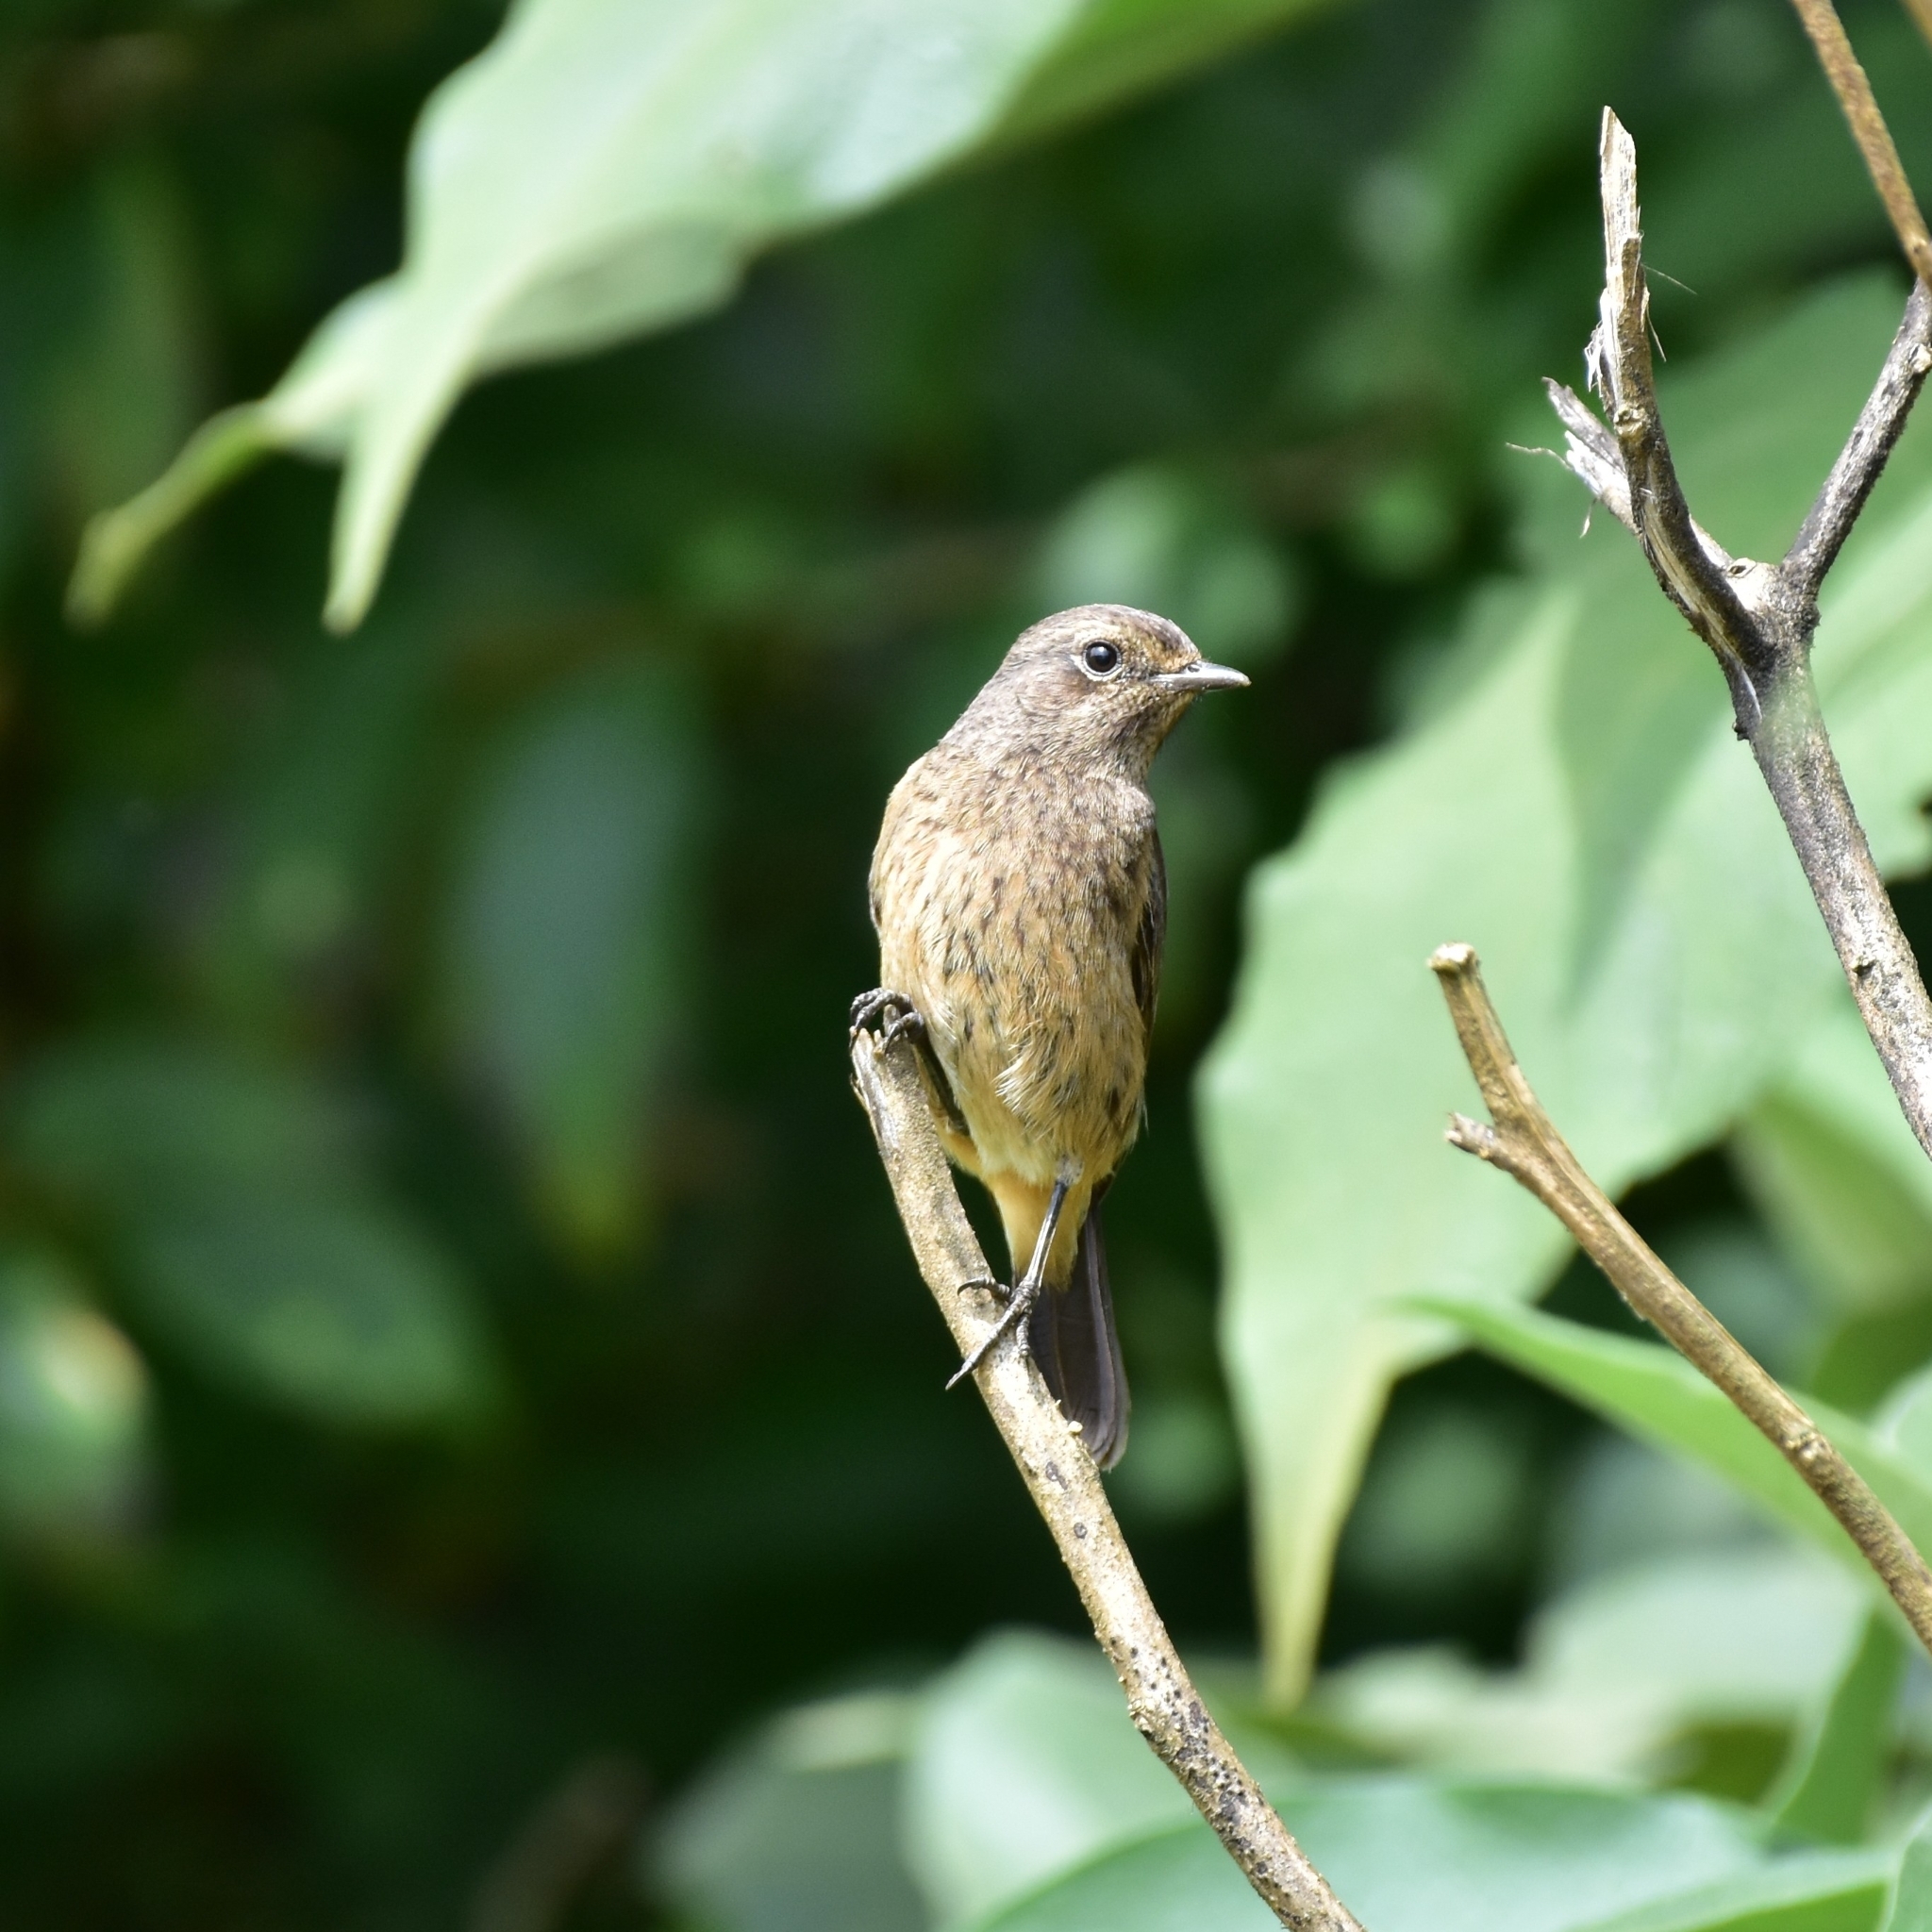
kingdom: Animalia
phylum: Chordata
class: Aves
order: Passeriformes
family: Muscicapidae
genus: Saxicola
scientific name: Saxicola caprata
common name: Pied bush chat
